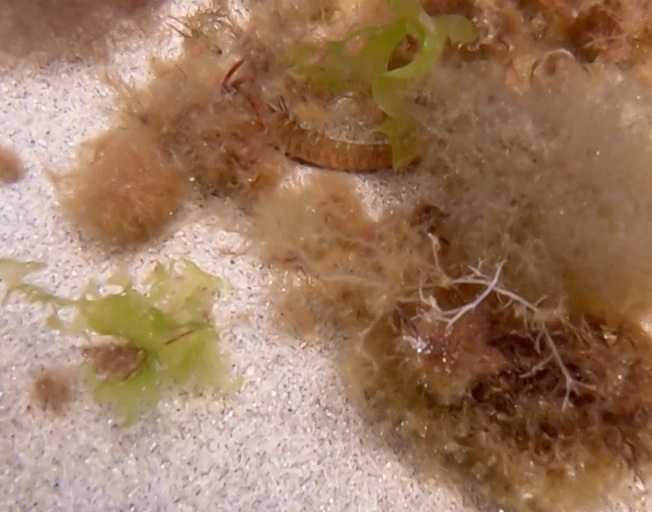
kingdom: Animalia
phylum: Chordata
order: Perciformes
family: Pholidae
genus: Pholis
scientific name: Pholis gunnellus
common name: Butterfish
